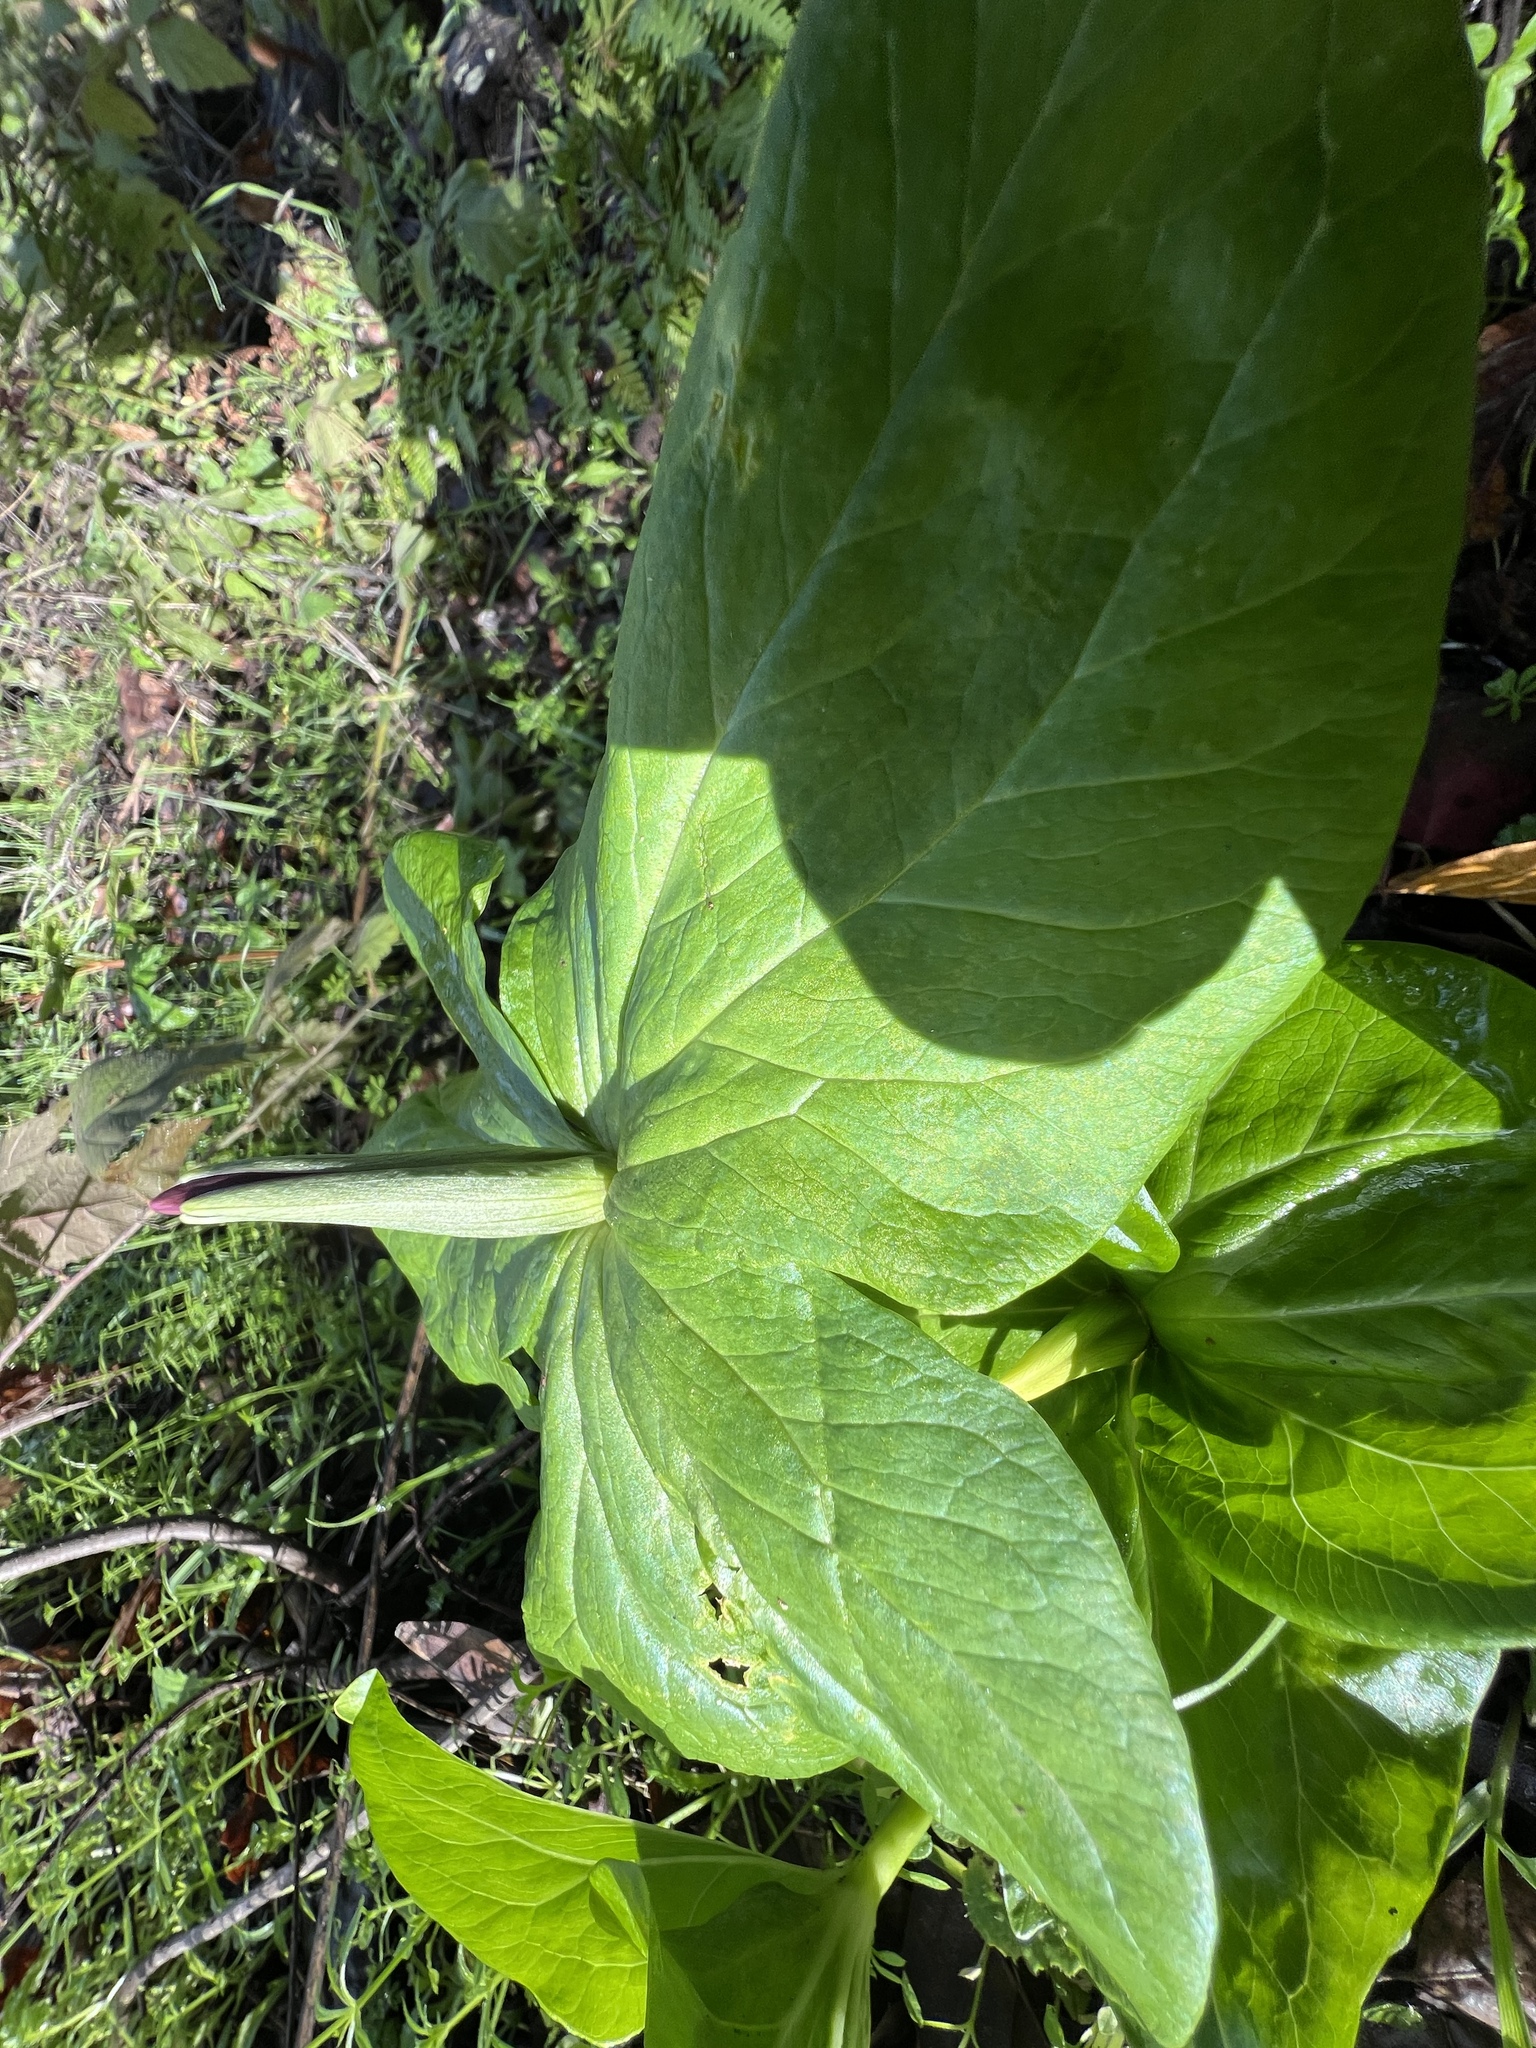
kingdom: Plantae
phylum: Tracheophyta
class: Liliopsida
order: Liliales
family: Melanthiaceae
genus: Trillium
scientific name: Trillium chloropetalum
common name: Giant trillium
